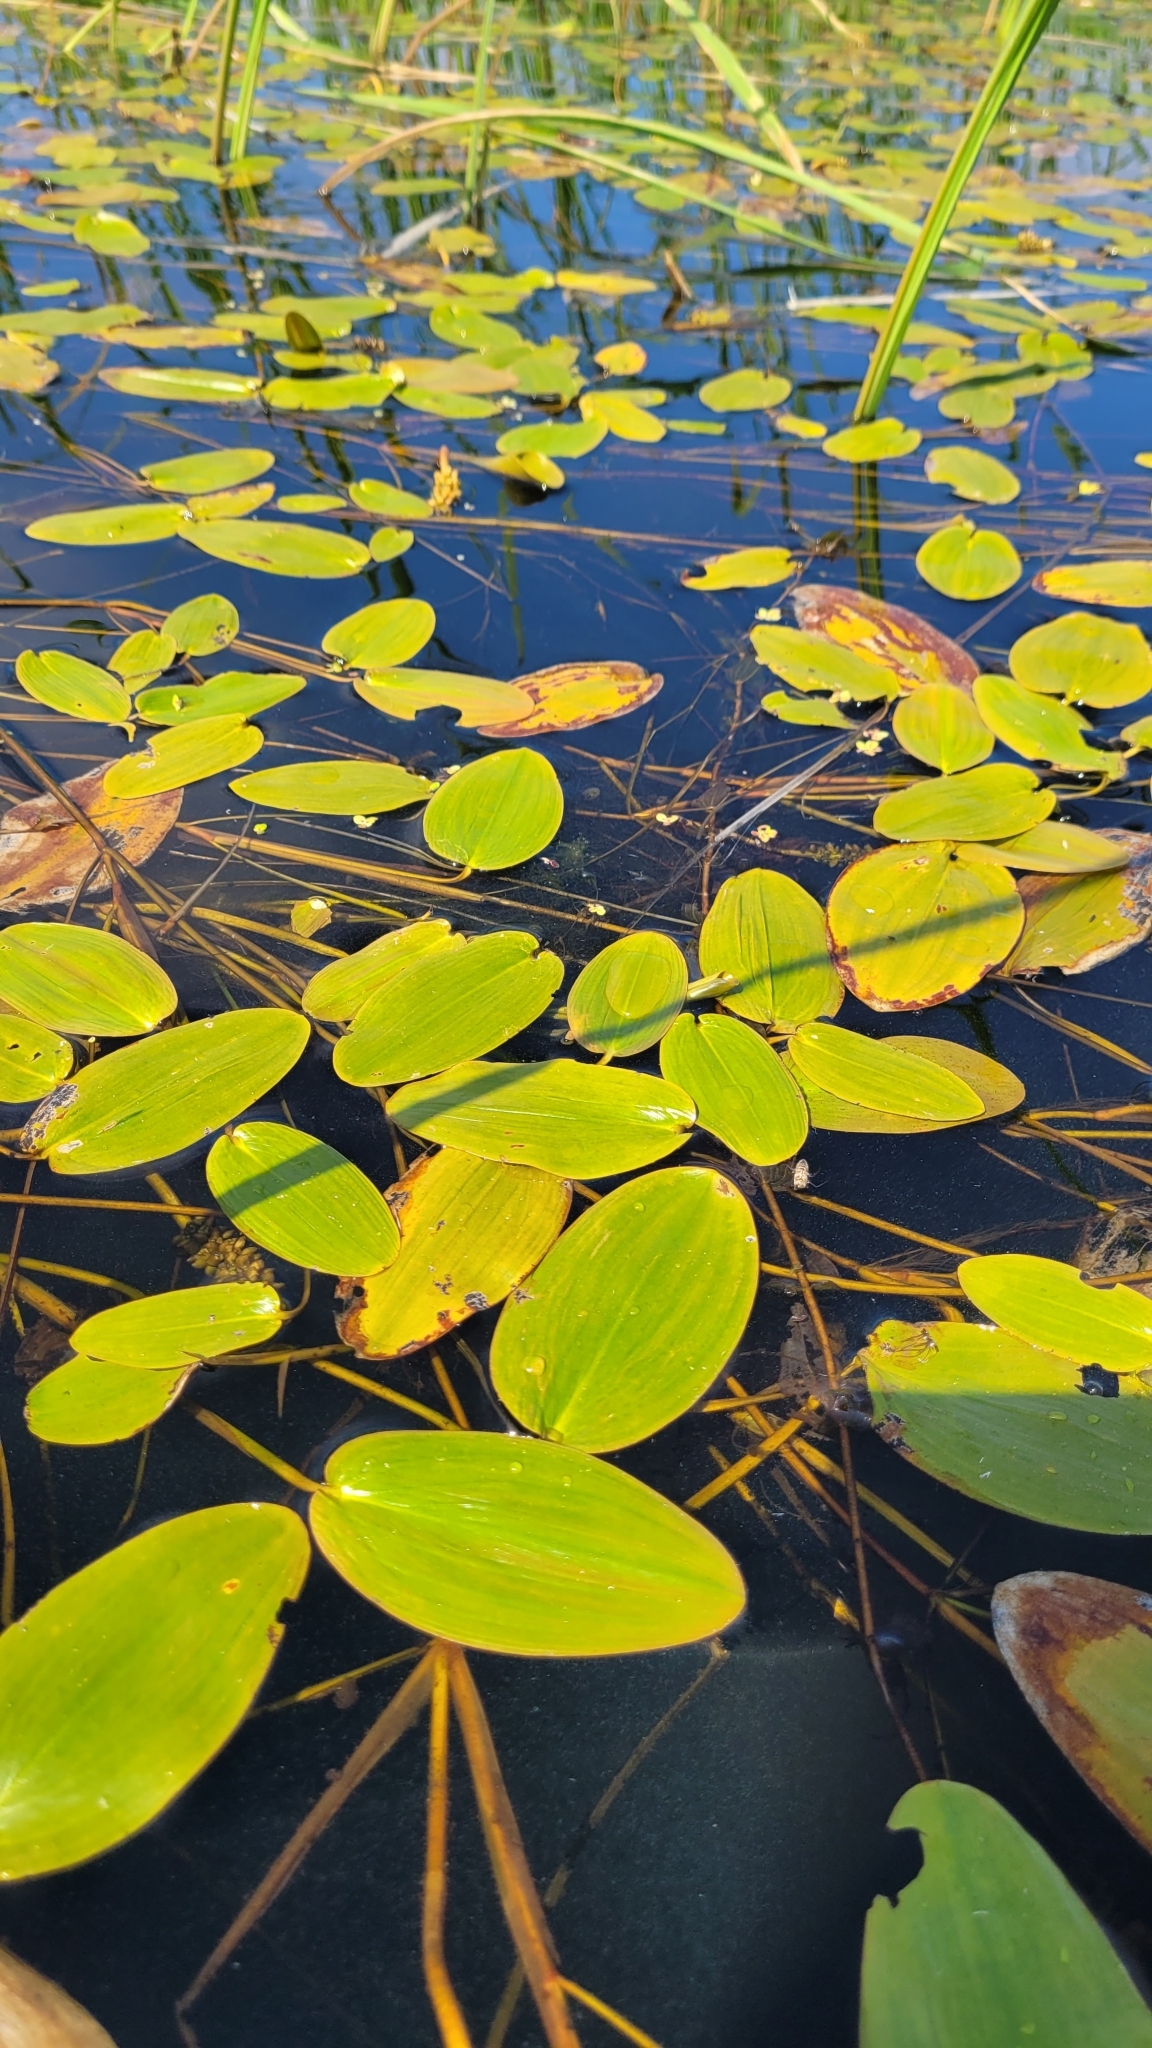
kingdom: Plantae
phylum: Tracheophyta
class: Liliopsida
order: Alismatales
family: Potamogetonaceae
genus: Potamogeton
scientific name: Potamogeton natans
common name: Broad-leaved pondweed
